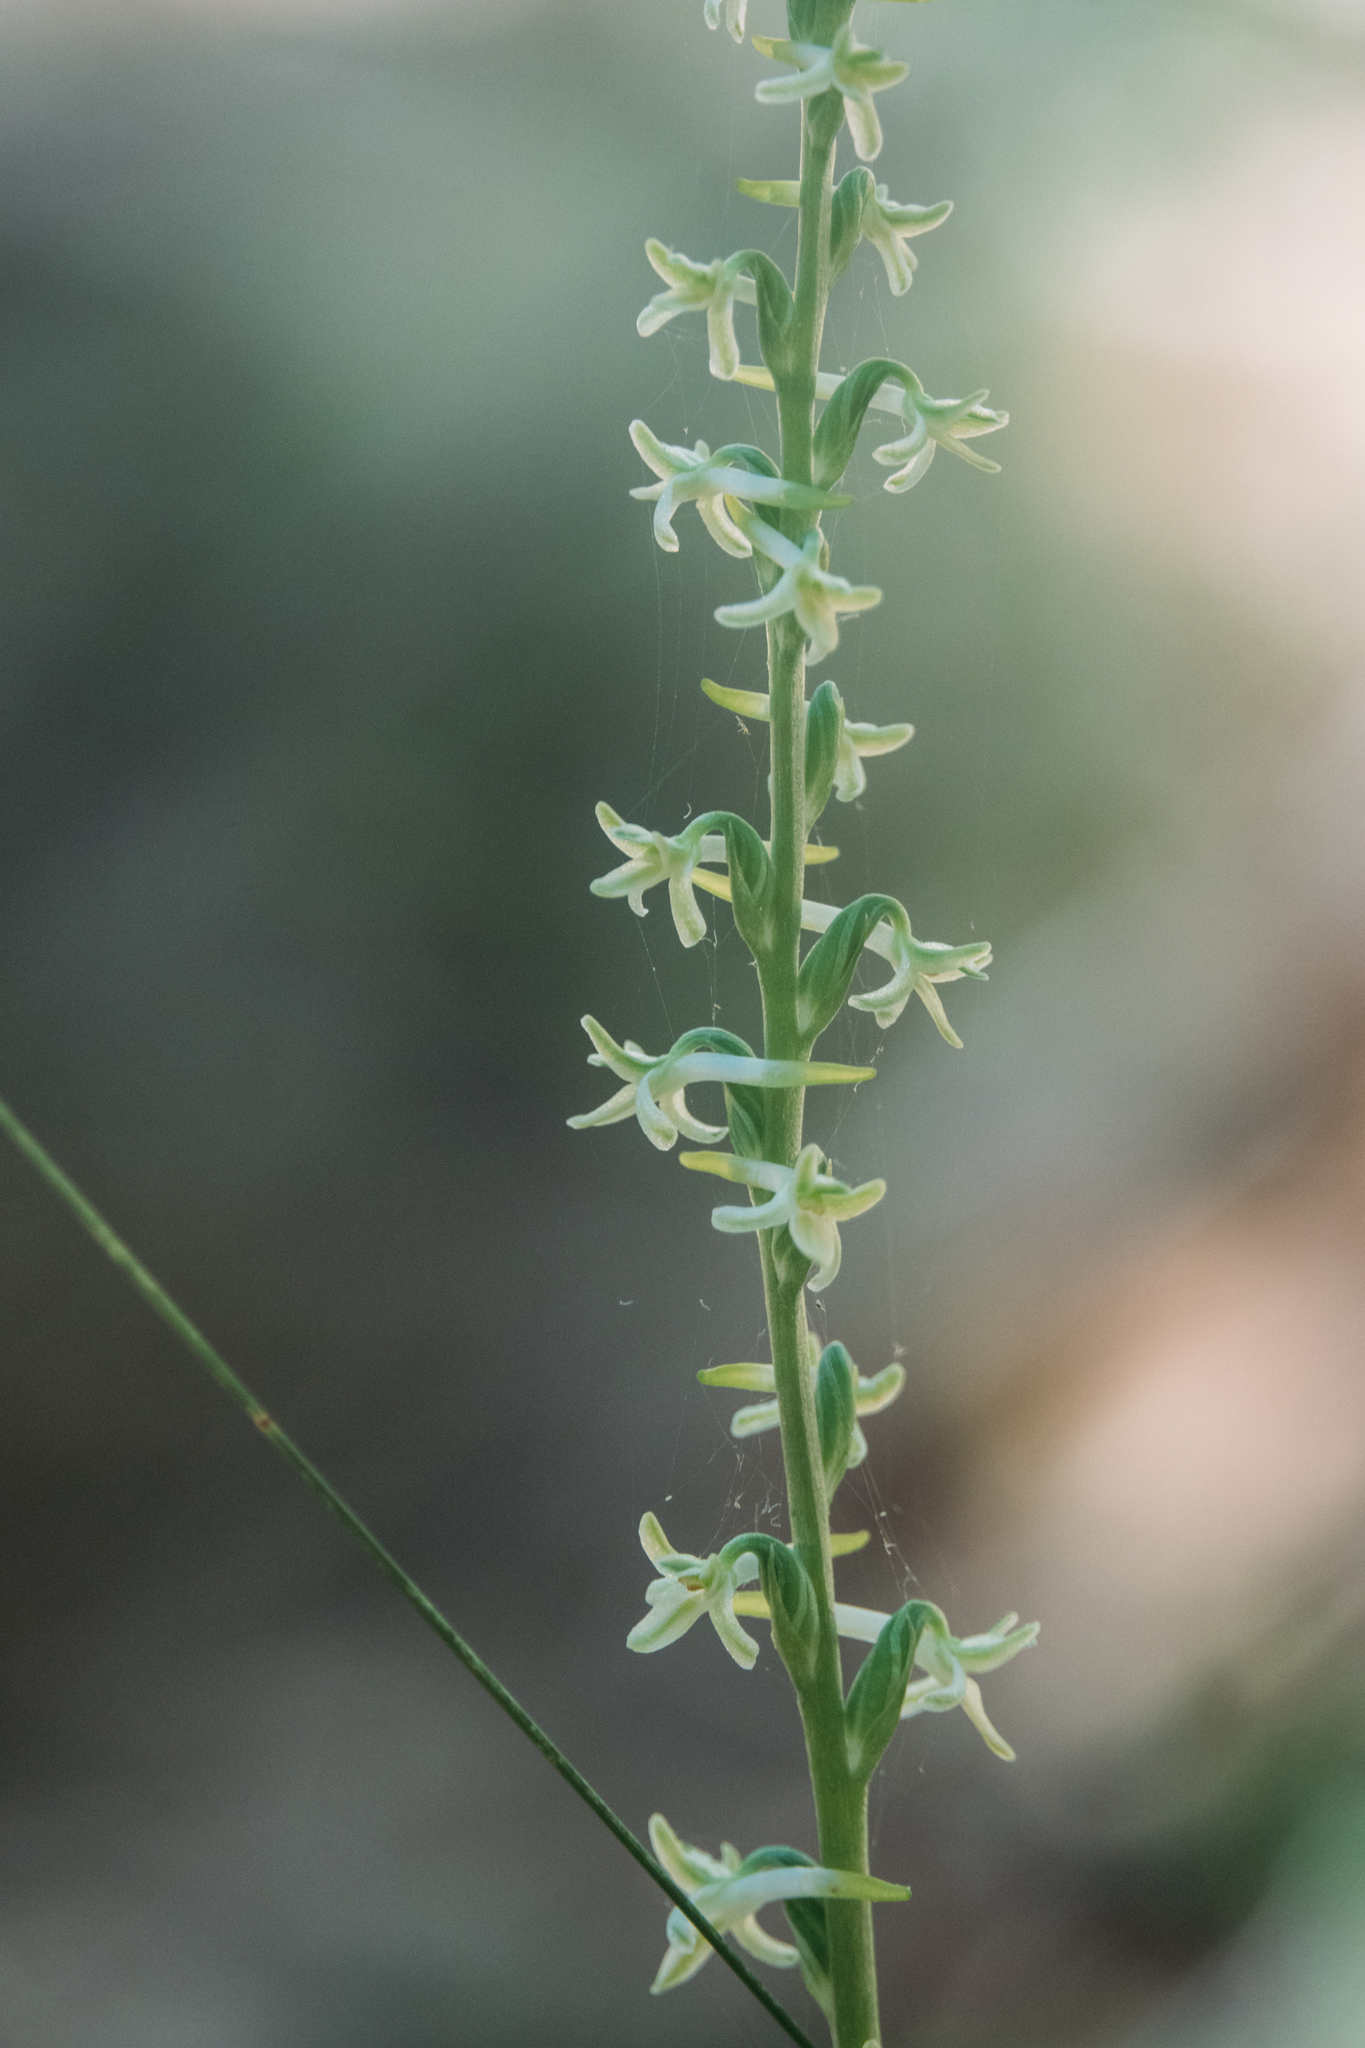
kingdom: Plantae
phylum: Tracheophyta
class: Liliopsida
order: Asparagales
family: Orchidaceae
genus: Platanthera
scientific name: Platanthera transversa
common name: Royal rein orchid
